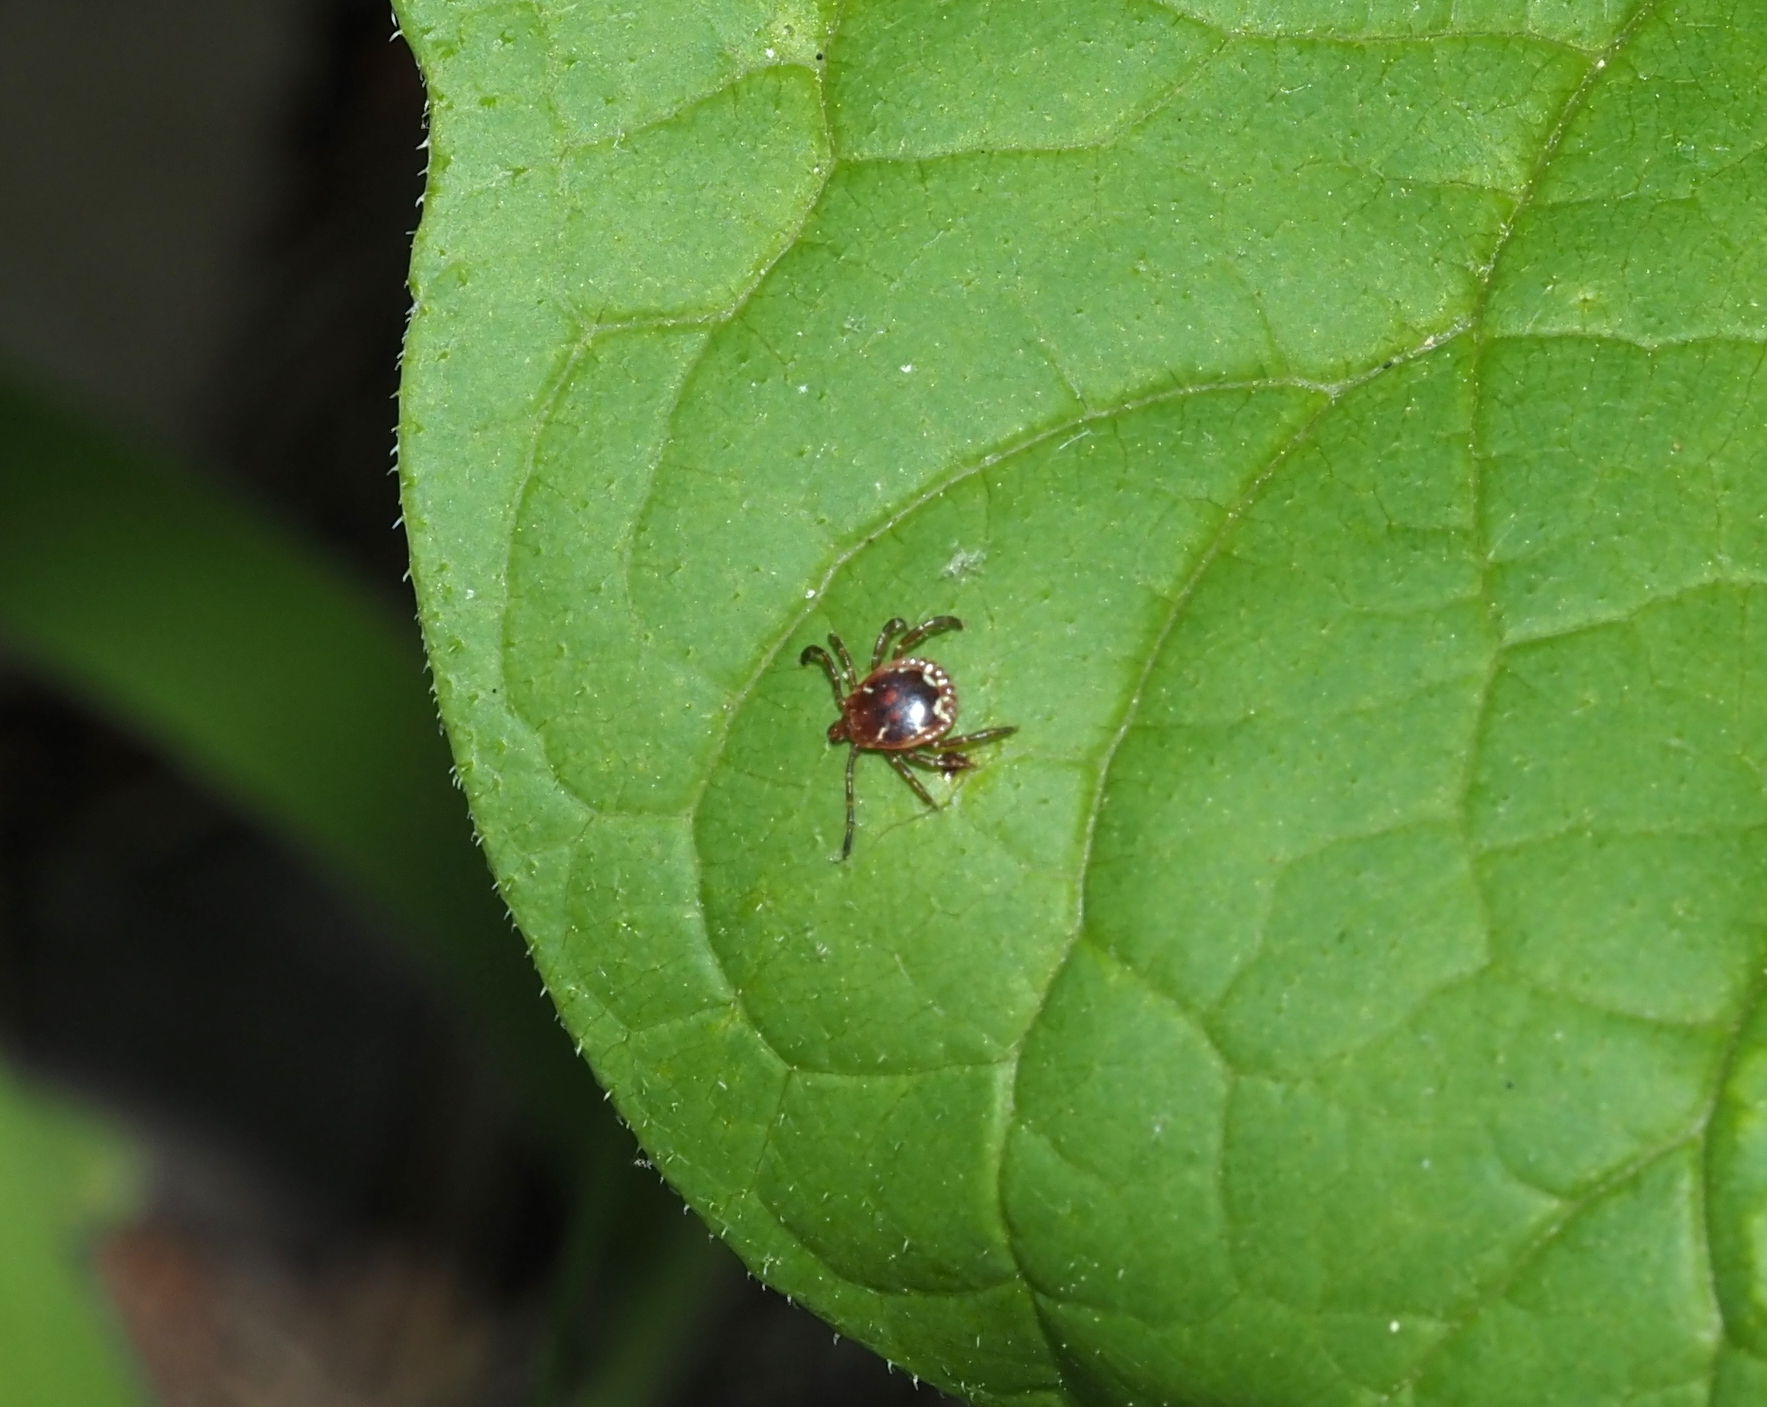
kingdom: Animalia
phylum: Arthropoda
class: Arachnida
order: Ixodida
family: Ixodidae
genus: Amblyomma
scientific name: Amblyomma americanum
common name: Lone star tick
